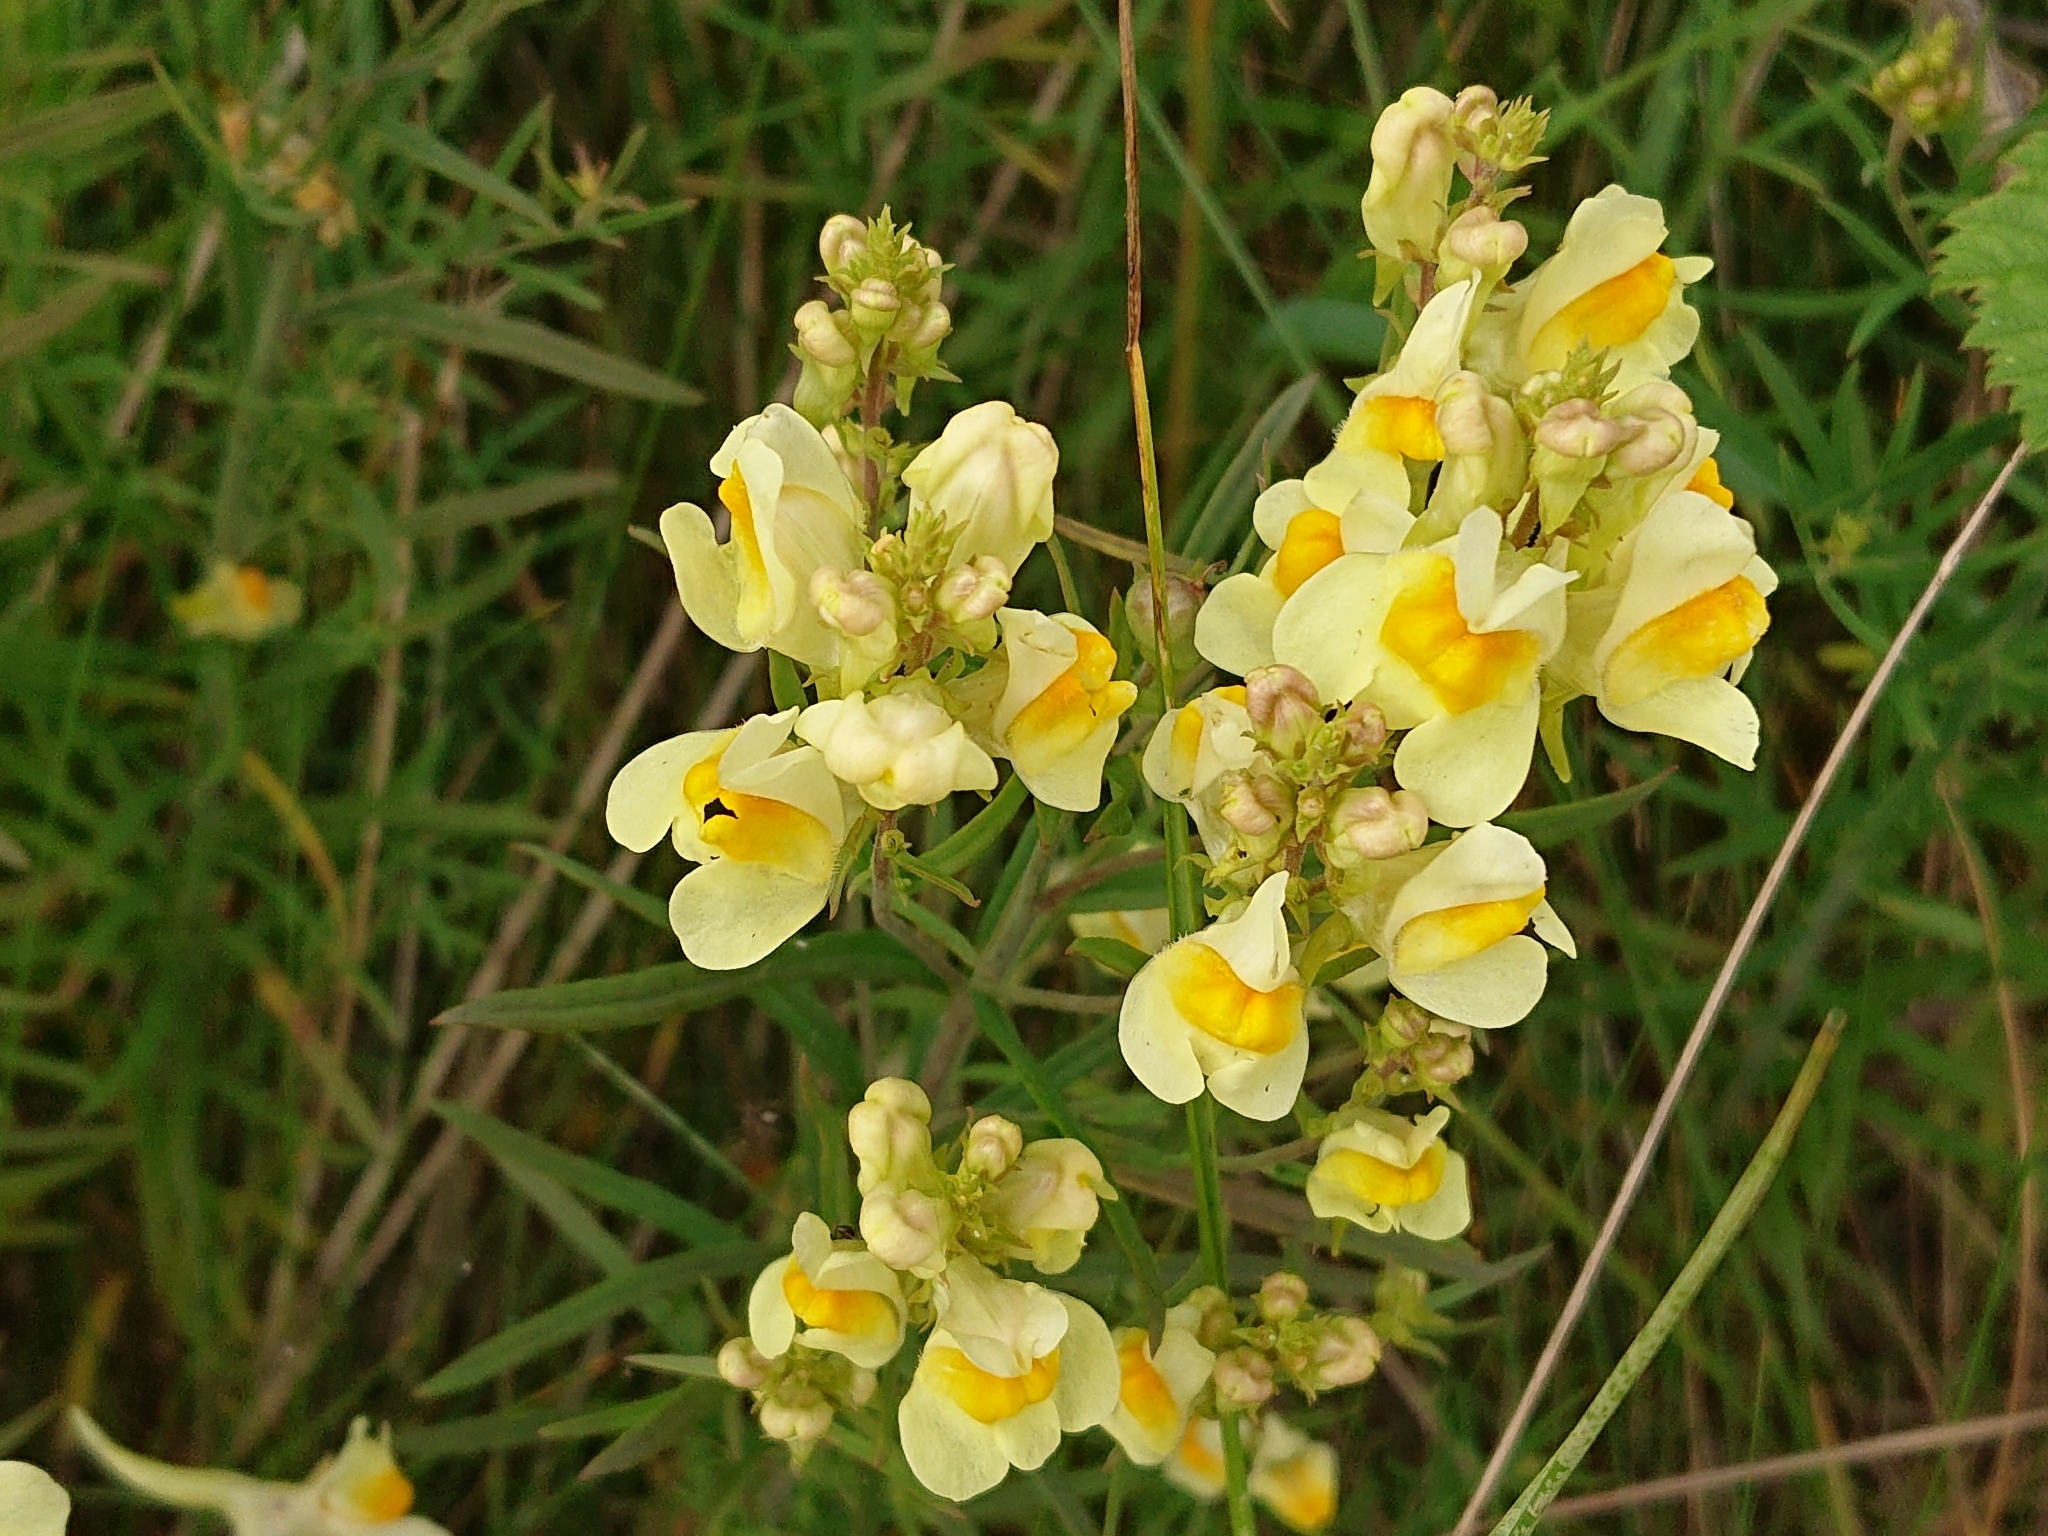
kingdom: Plantae
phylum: Tracheophyta
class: Magnoliopsida
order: Lamiales
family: Plantaginaceae
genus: Linaria
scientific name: Linaria vulgaris
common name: Butter and eggs
